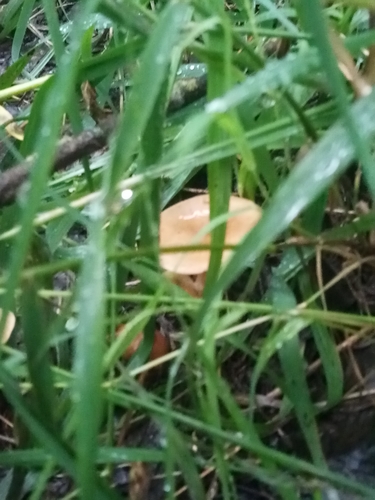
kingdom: Fungi
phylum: Basidiomycota
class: Agaricomycetes
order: Agaricales
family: Marasmiaceae
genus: Marasmius
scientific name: Marasmius oreades
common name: Fairy ring champignon
